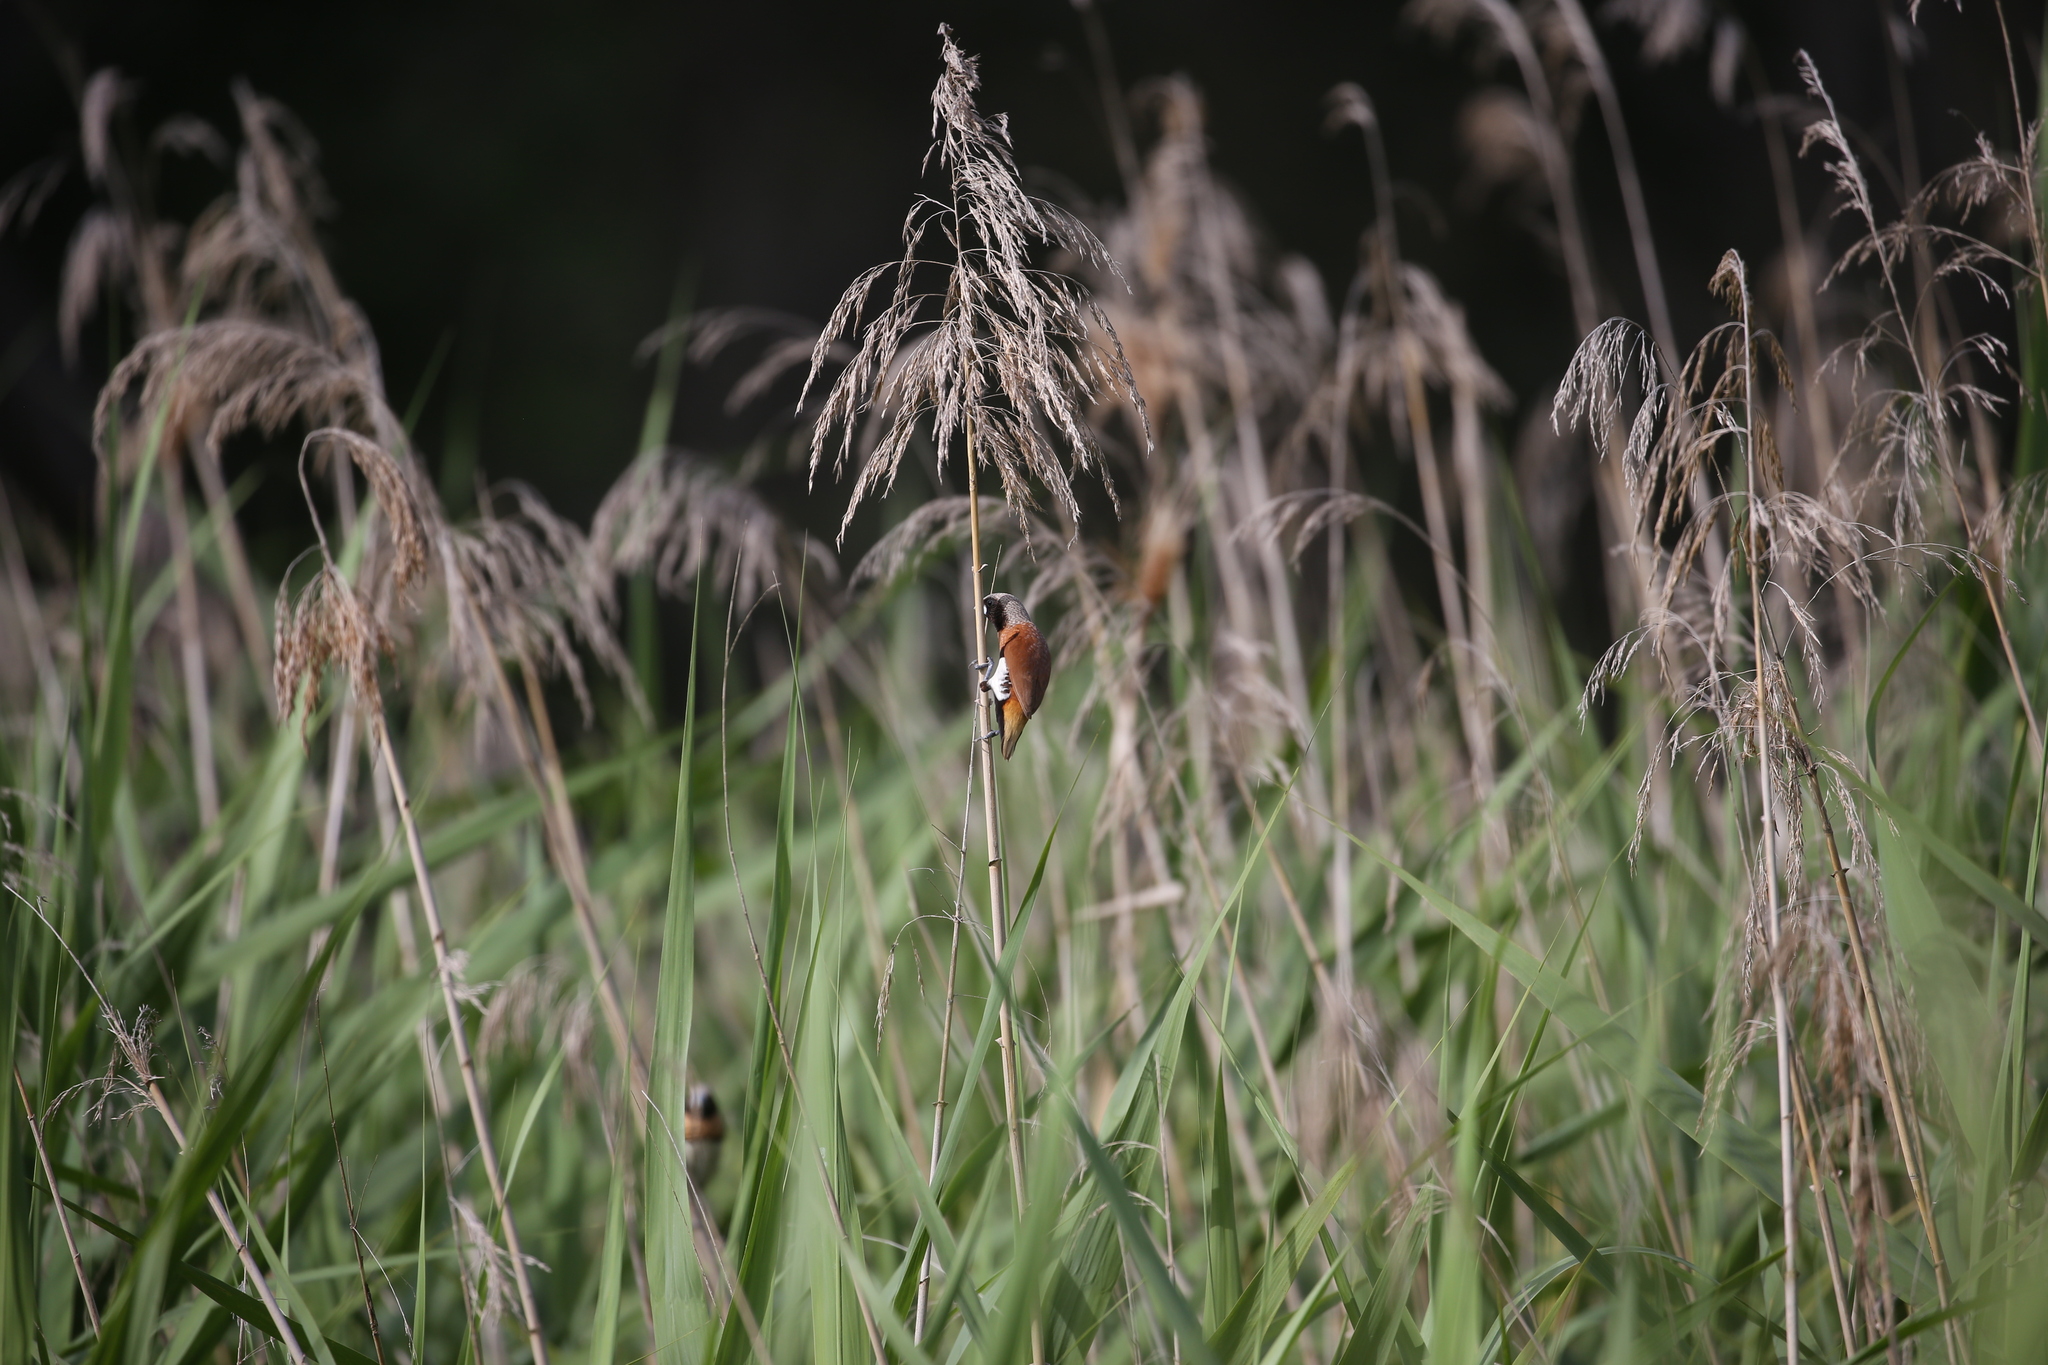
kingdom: Animalia
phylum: Chordata
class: Aves
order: Passeriformes
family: Estrildidae
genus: Lonchura
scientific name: Lonchura castaneothorax
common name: Chestnut-breasted mannikin
